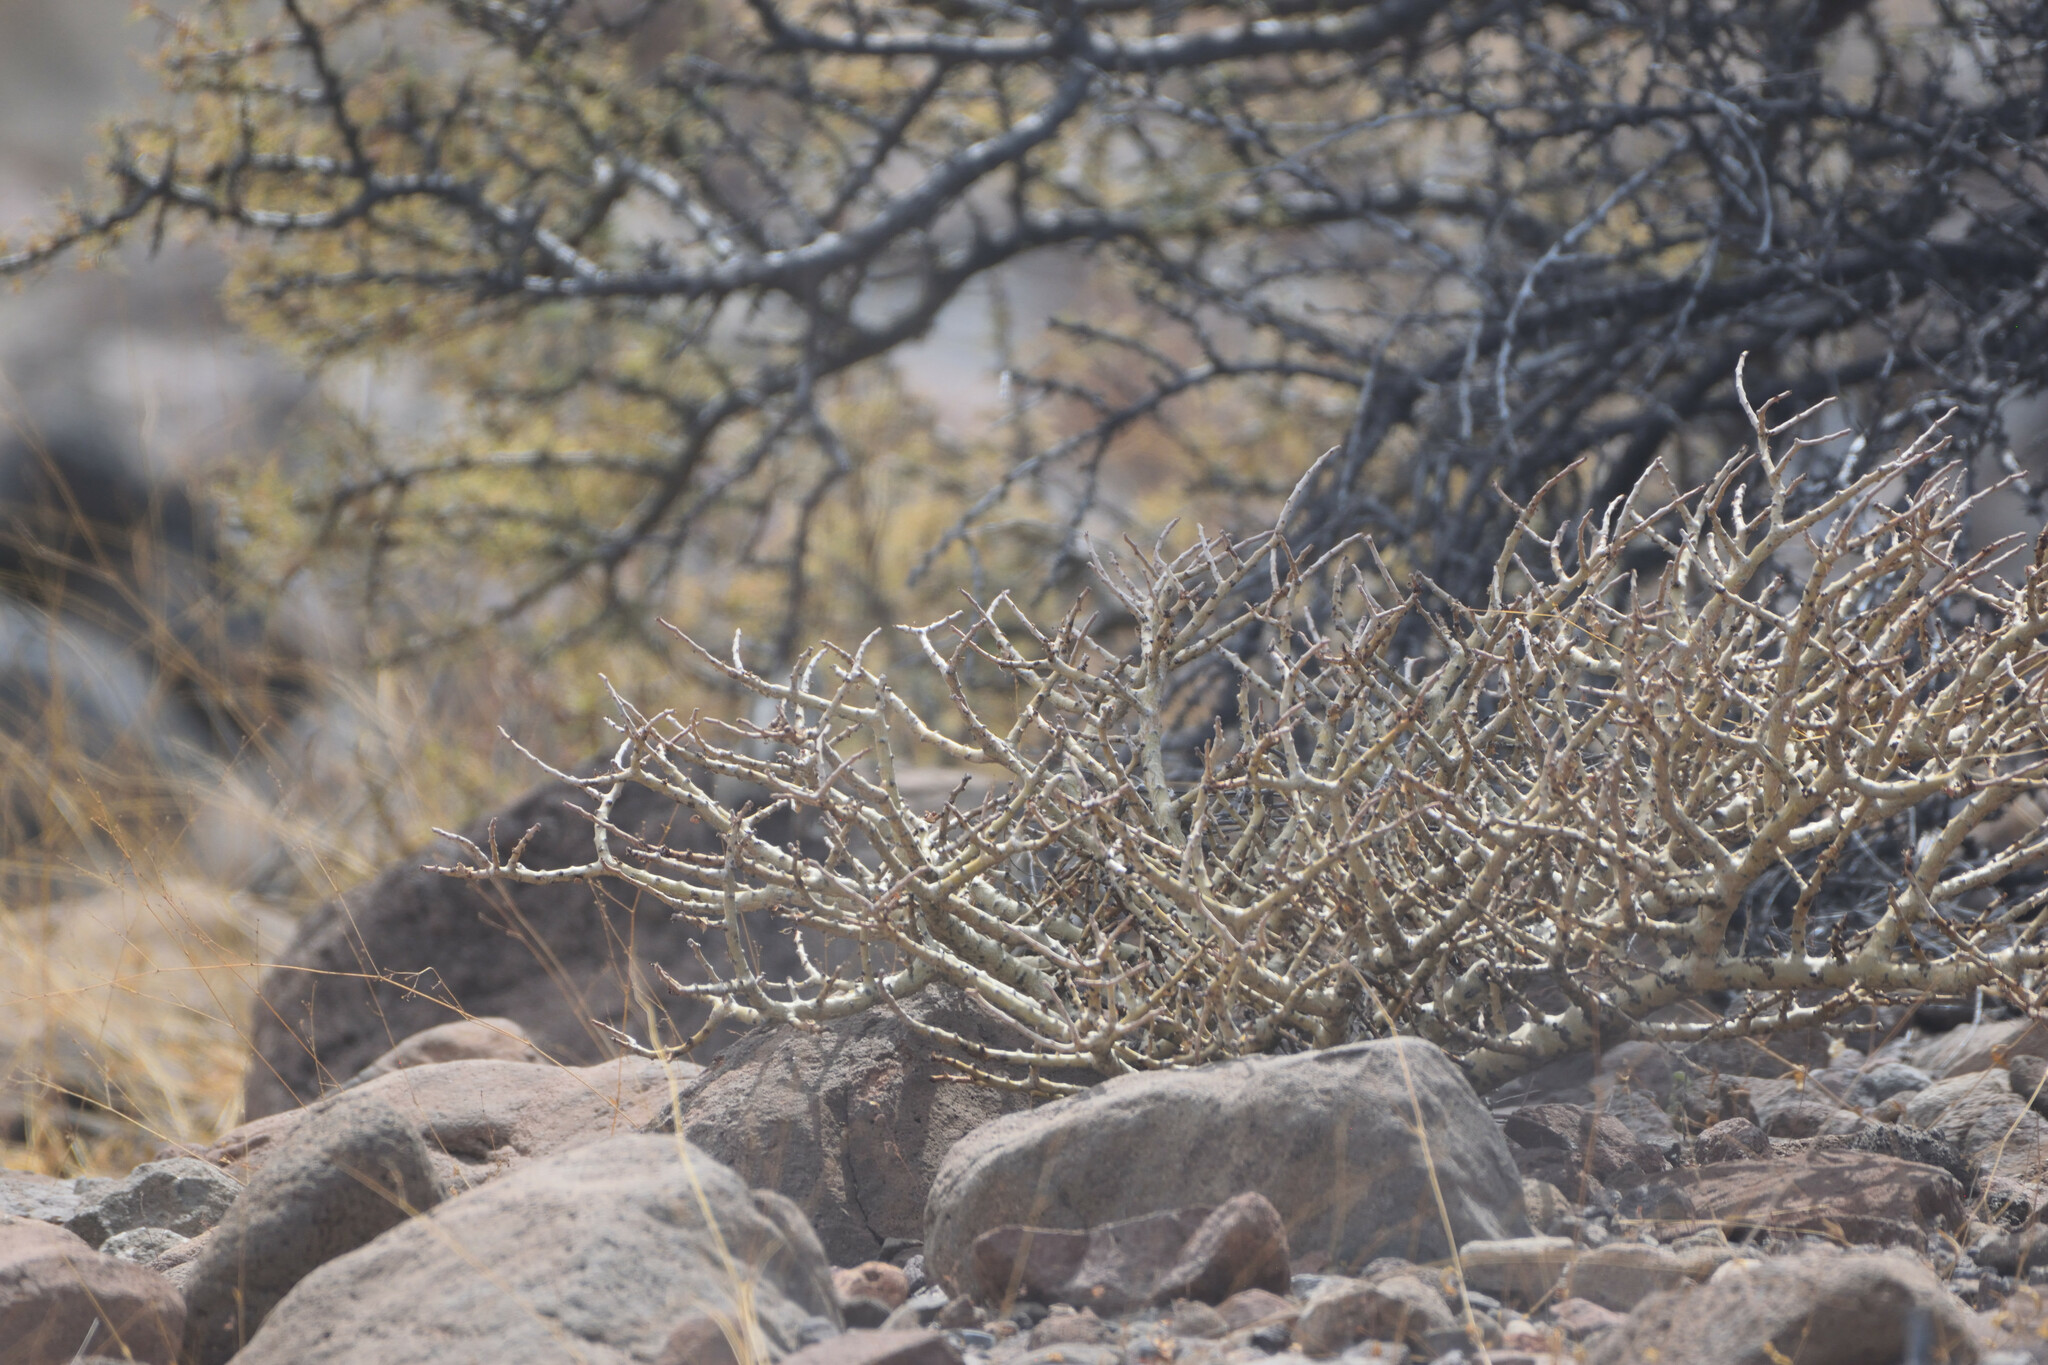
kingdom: Plantae
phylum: Tracheophyta
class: Magnoliopsida
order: Malpighiales
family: Euphorbiaceae
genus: Jatropha
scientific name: Jatropha cuneata
